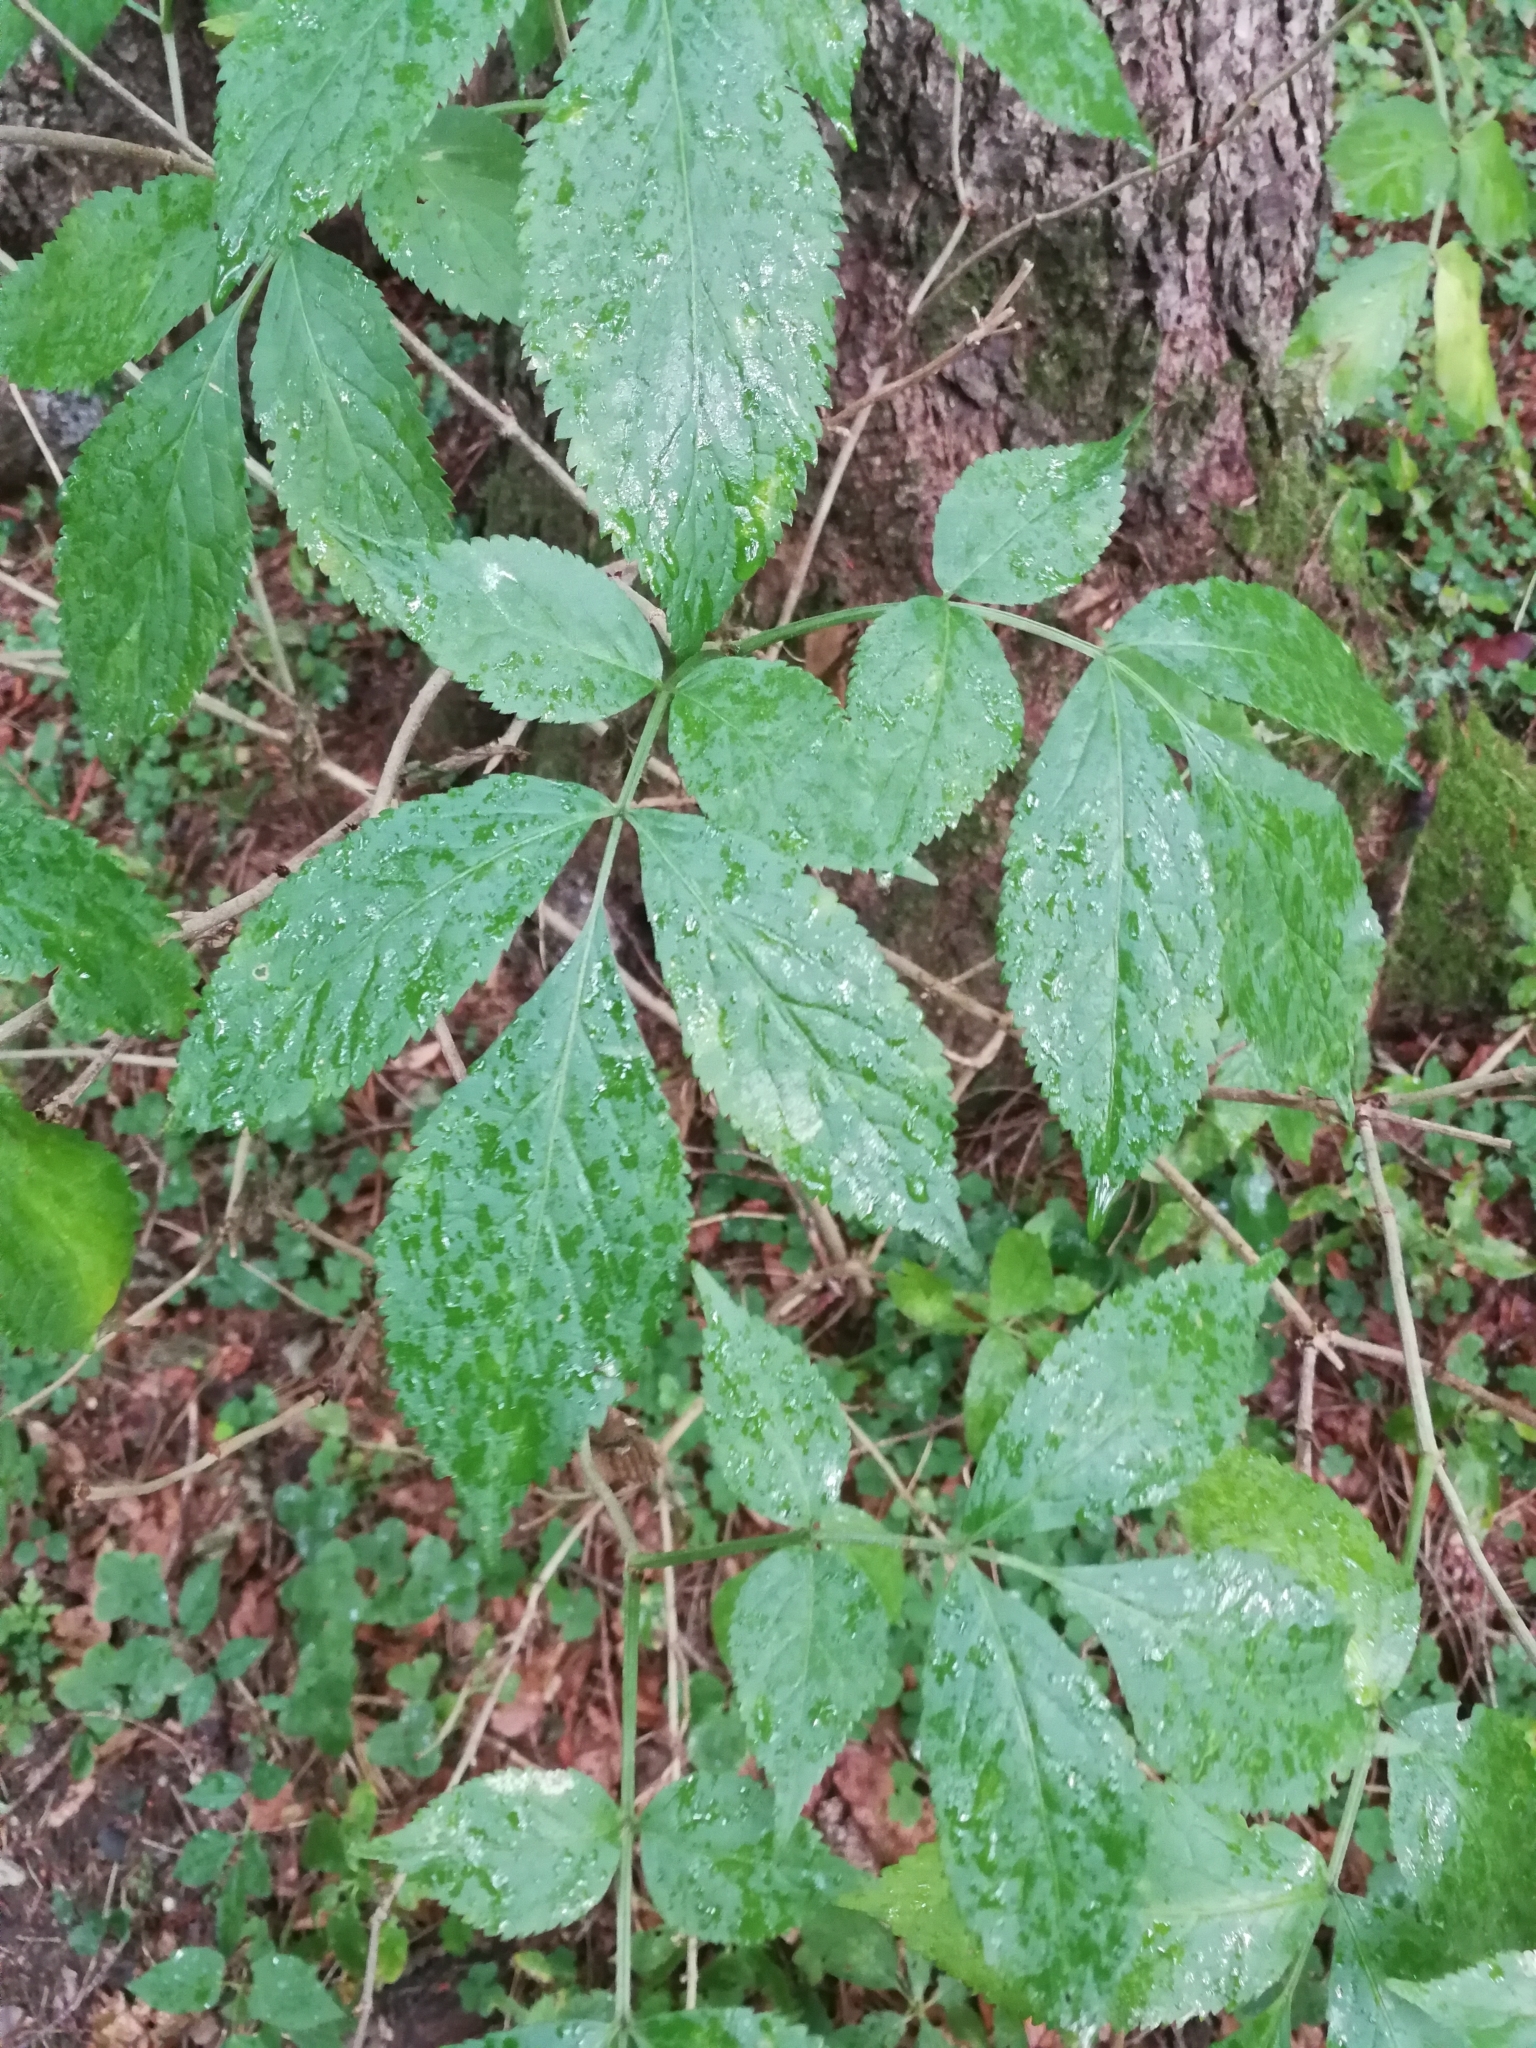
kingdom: Plantae
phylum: Tracheophyta
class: Magnoliopsida
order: Dipsacales
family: Viburnaceae
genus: Sambucus
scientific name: Sambucus nigra
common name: Elder
